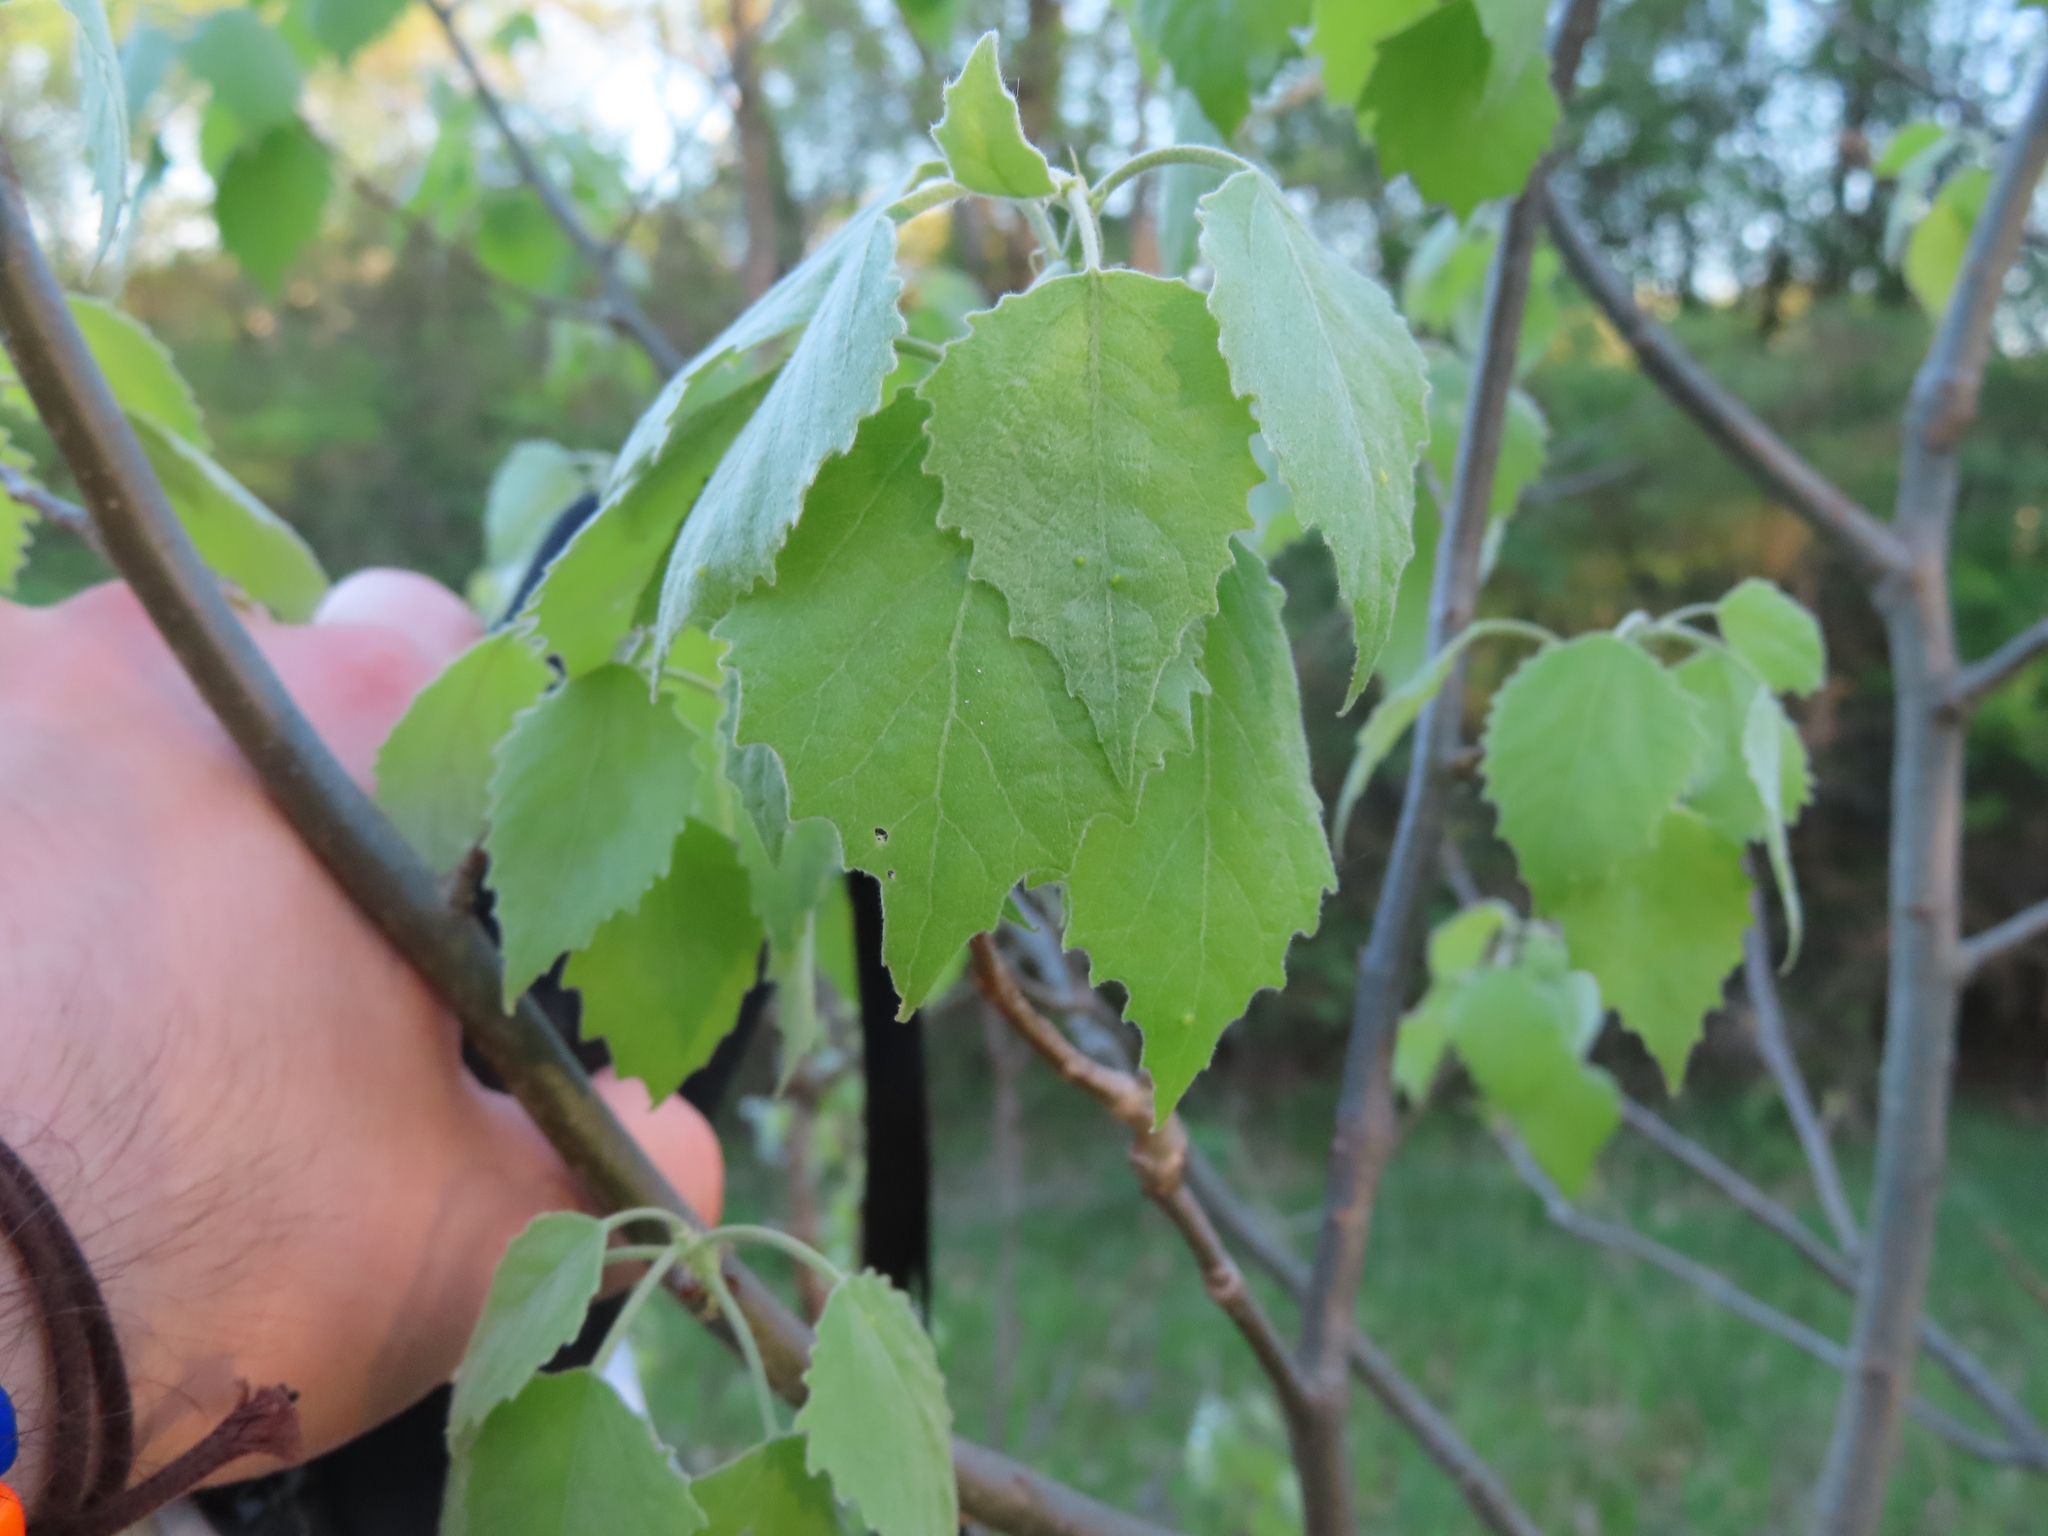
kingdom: Plantae
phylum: Tracheophyta
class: Magnoliopsida
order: Malpighiales
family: Salicaceae
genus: Populus
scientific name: Populus grandidentata
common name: Bigtooth aspen
